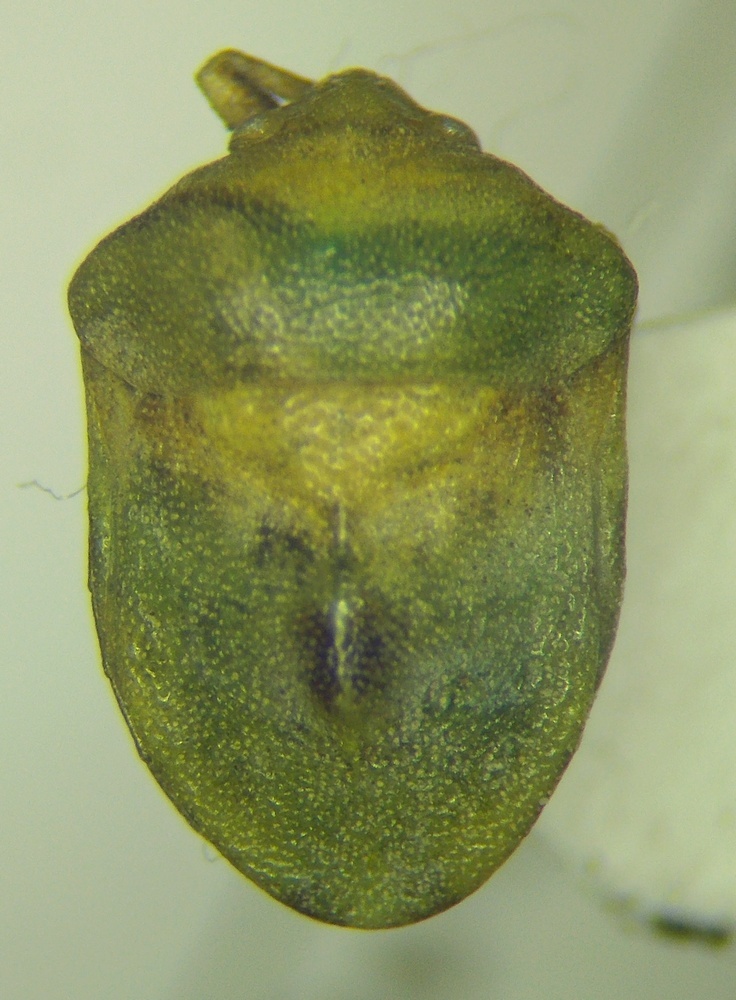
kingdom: Animalia
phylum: Arthropoda
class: Insecta
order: Hemiptera
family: Pentatomidae
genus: Tarisa
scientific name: Tarisa subspinosa
